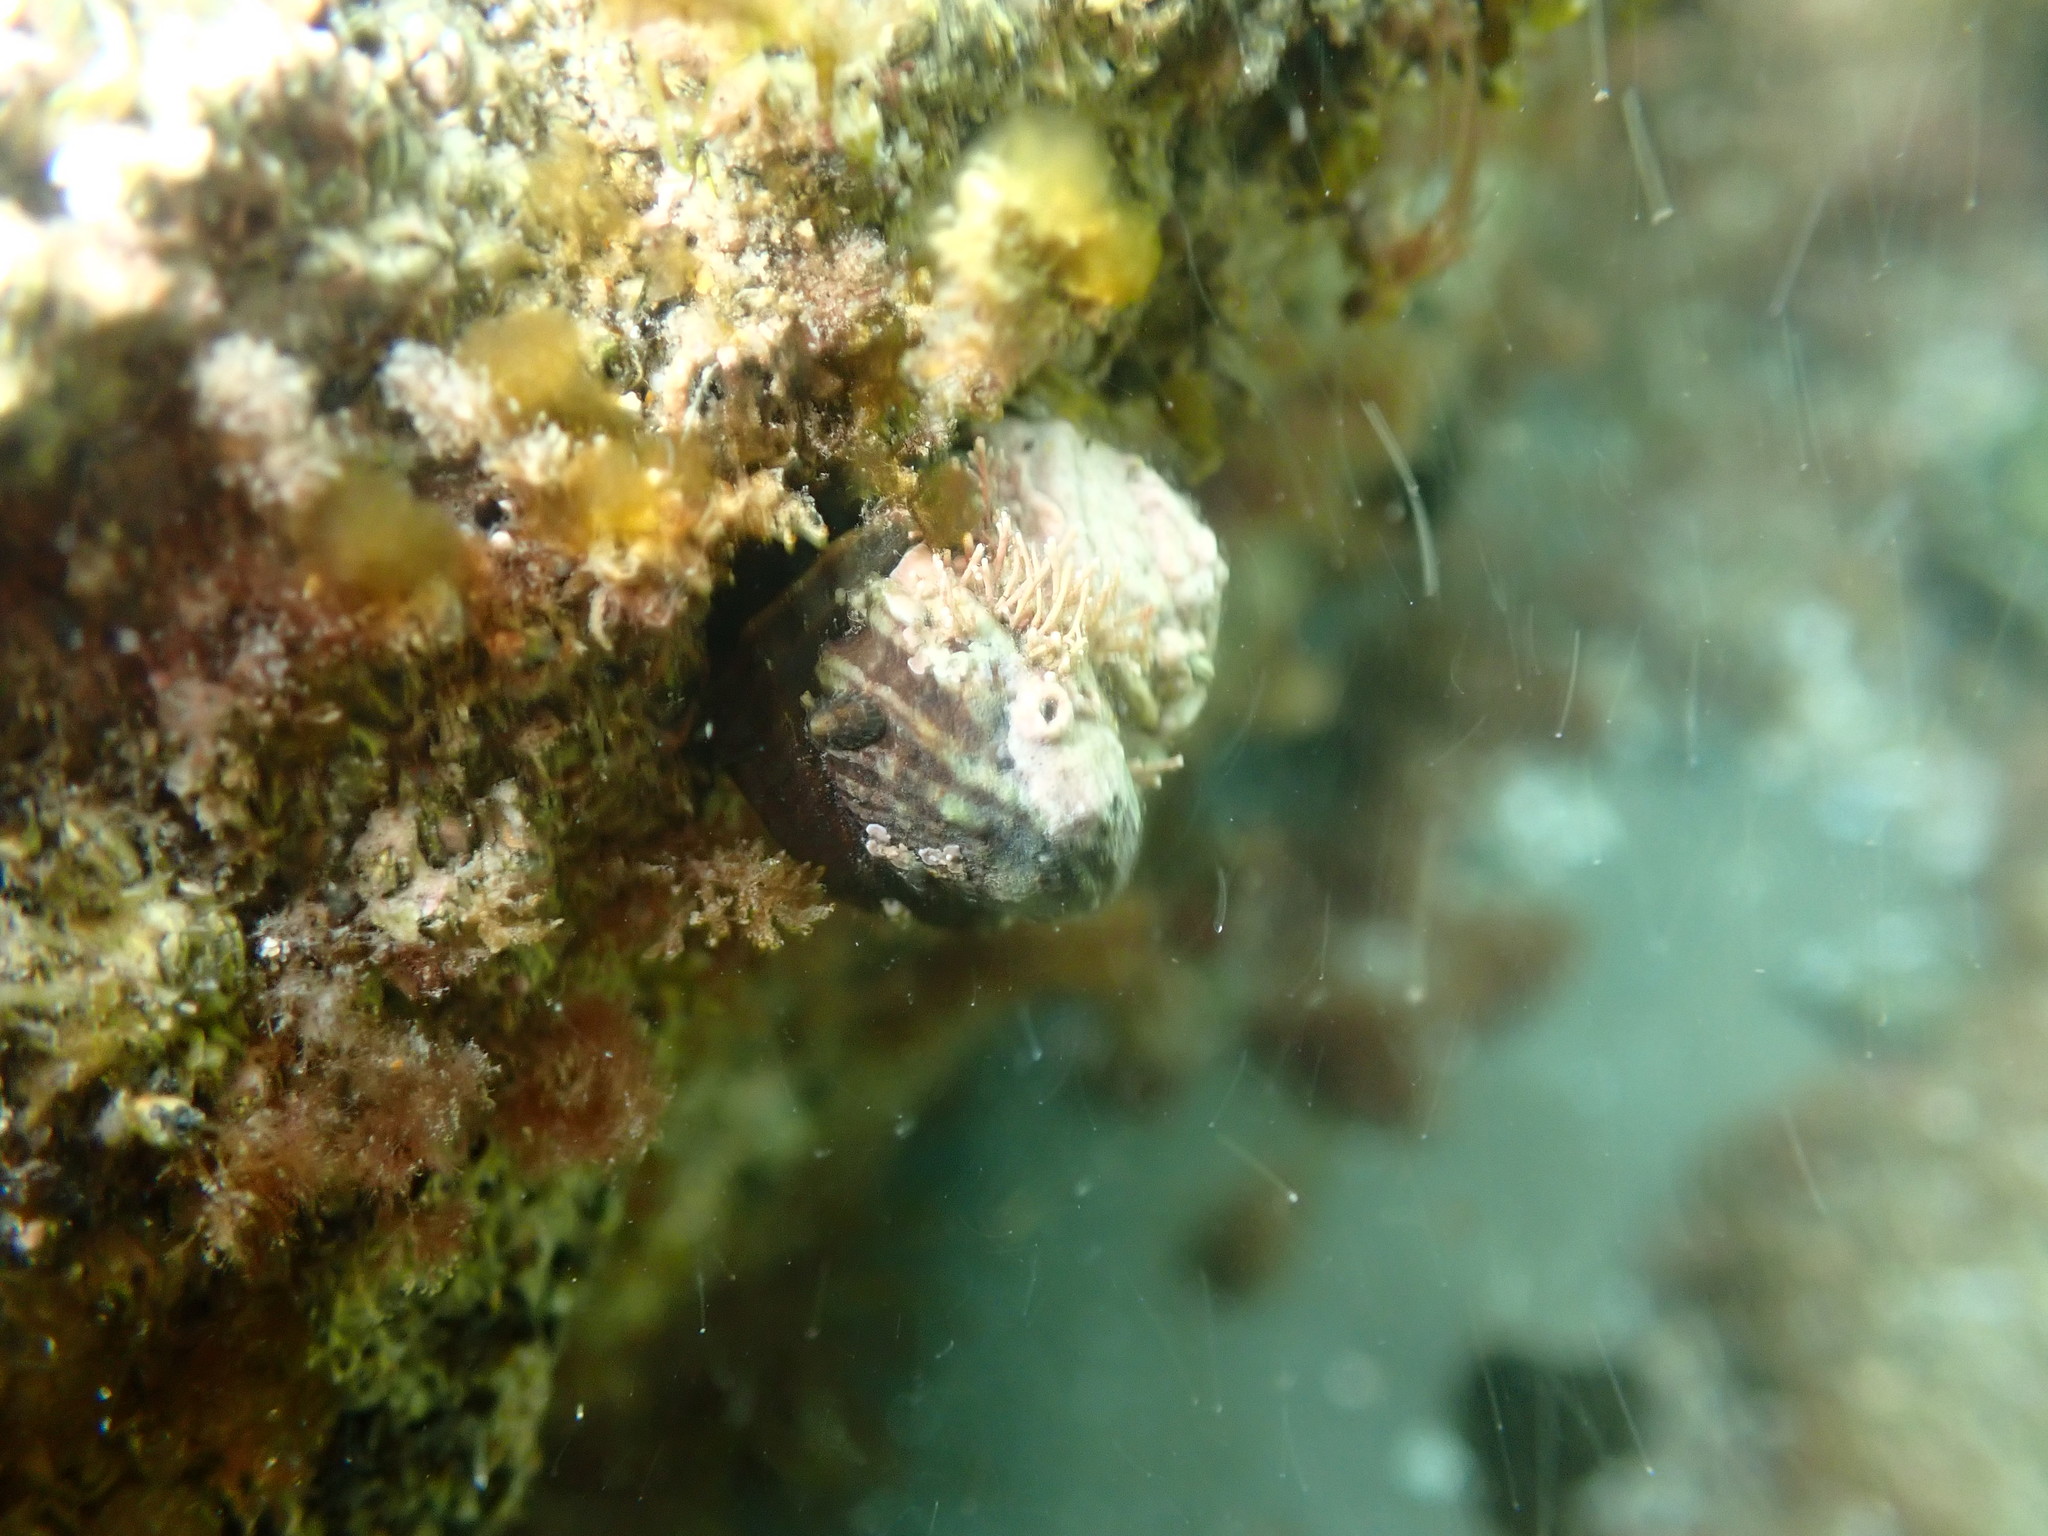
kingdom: Animalia
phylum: Mollusca
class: Gastropoda
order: Littorinimorpha
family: Calyptraeidae
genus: Maoricrypta
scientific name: Maoricrypta costata
